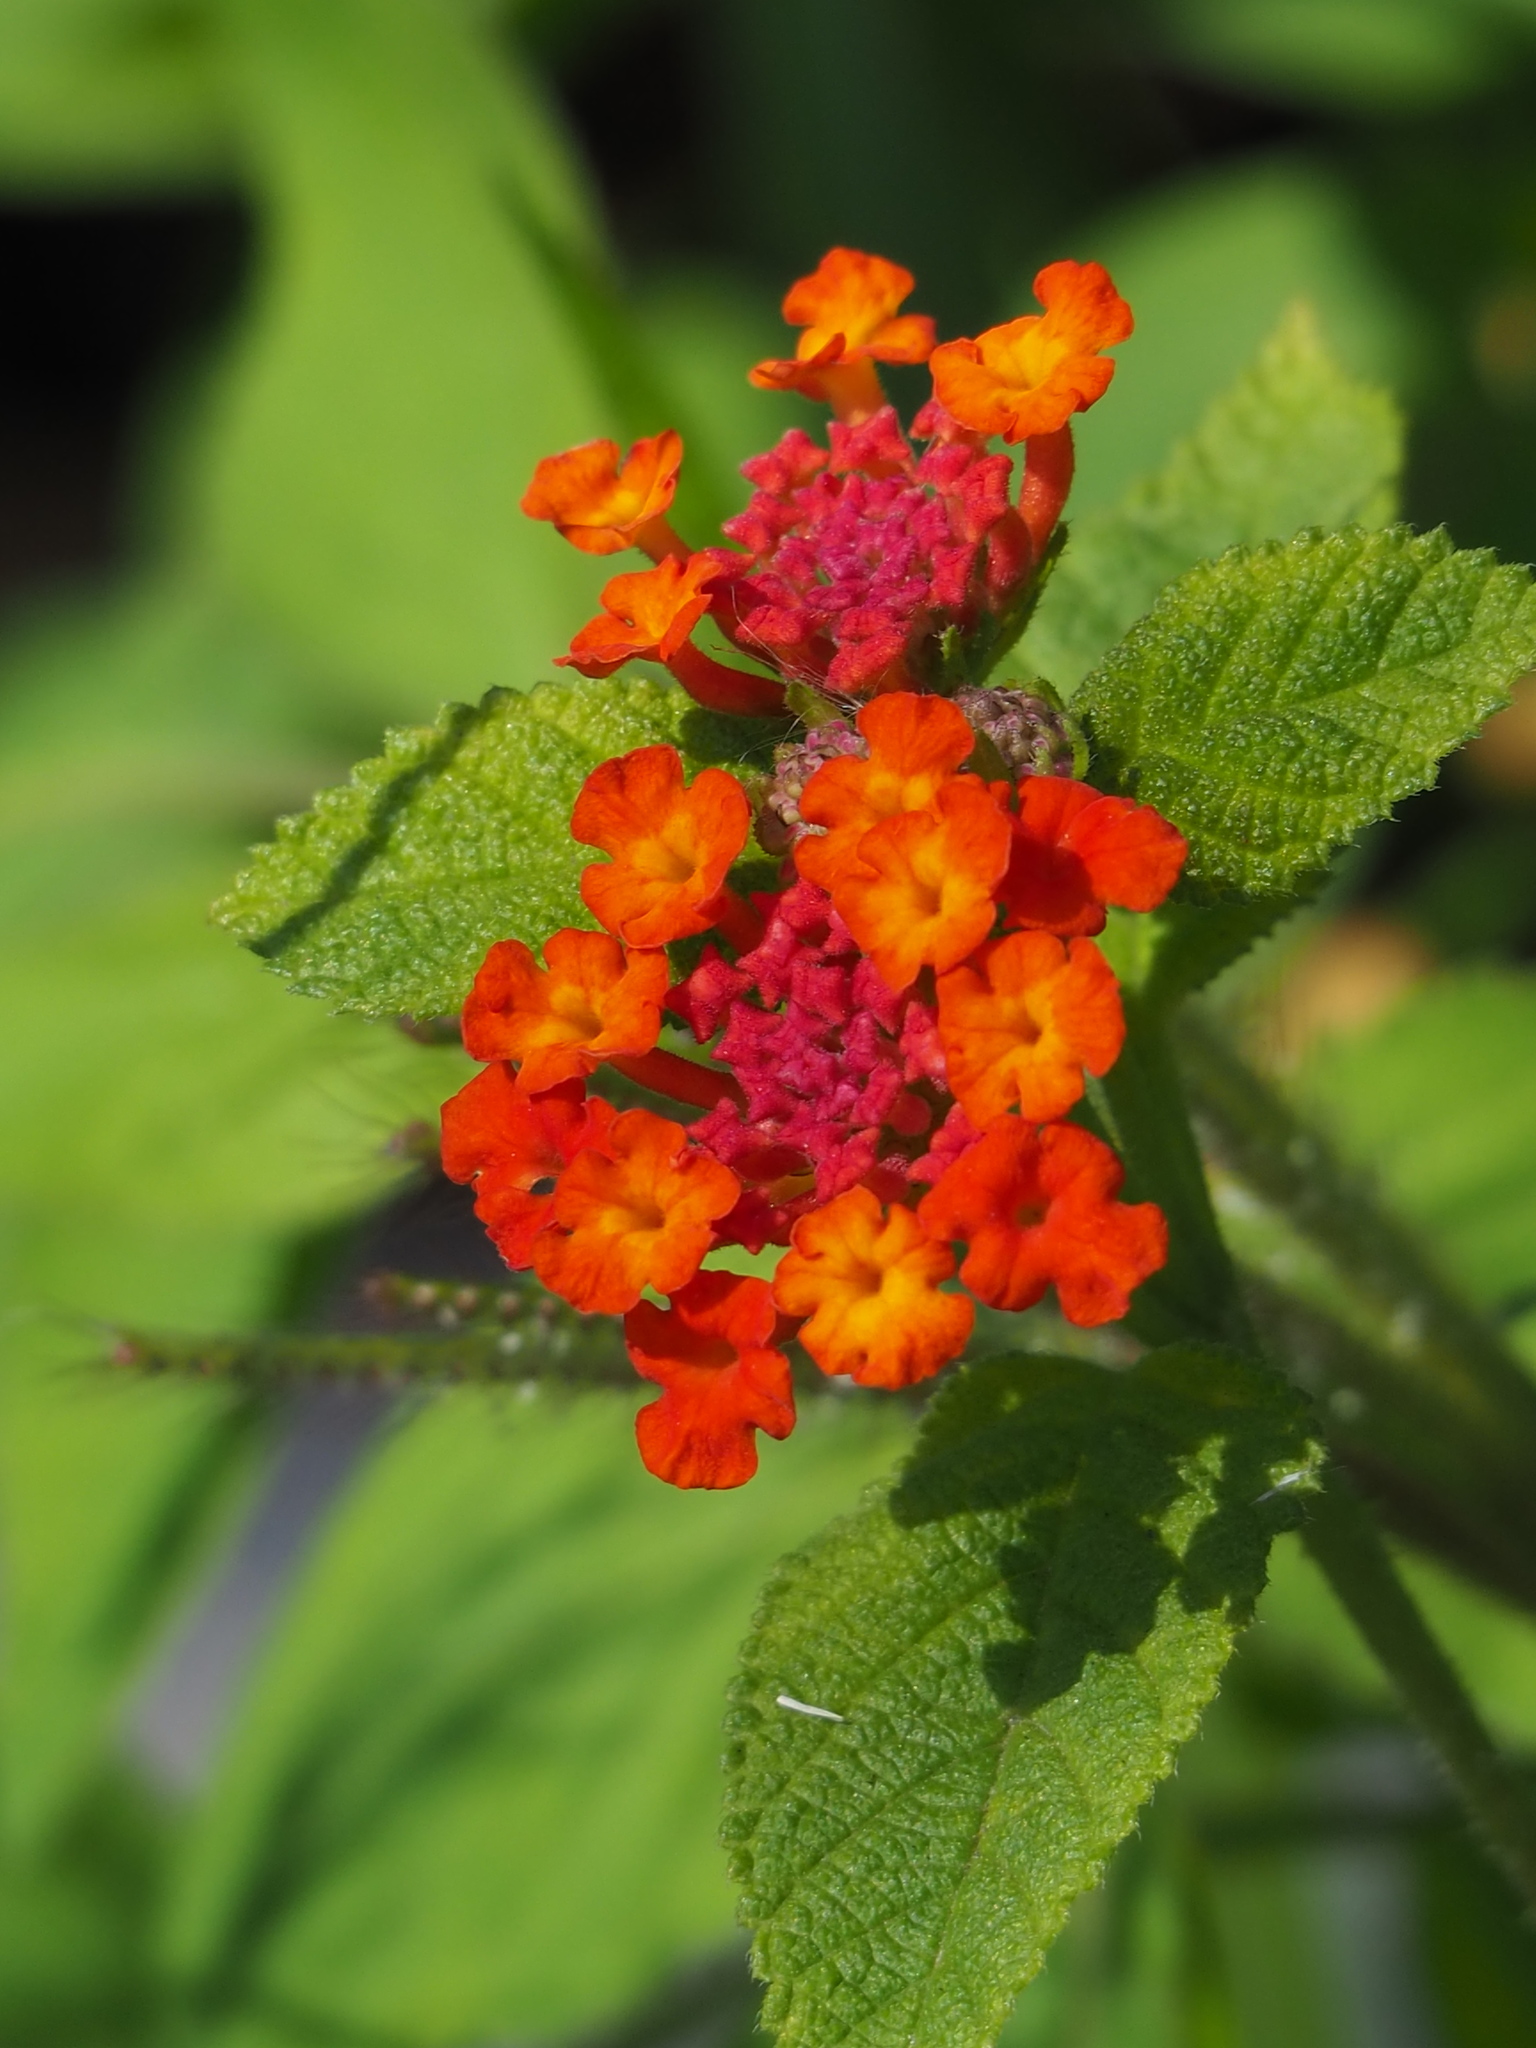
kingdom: Plantae
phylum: Tracheophyta
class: Magnoliopsida
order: Lamiales
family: Verbenaceae
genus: Lantana
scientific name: Lantana camara
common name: Lantana
